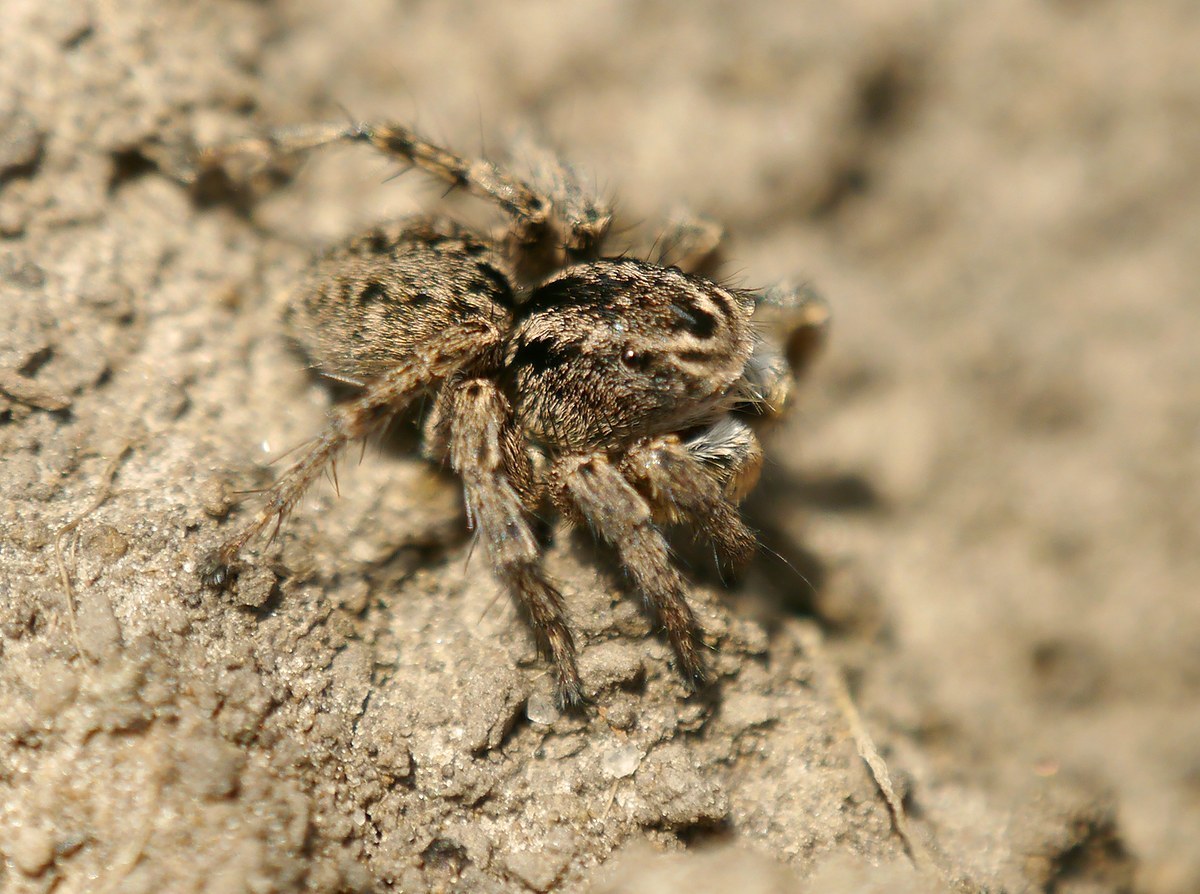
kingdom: Animalia
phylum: Arthropoda
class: Arachnida
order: Araneae
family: Salticidae
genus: Aelurillus
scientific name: Aelurillus v-insignitus
